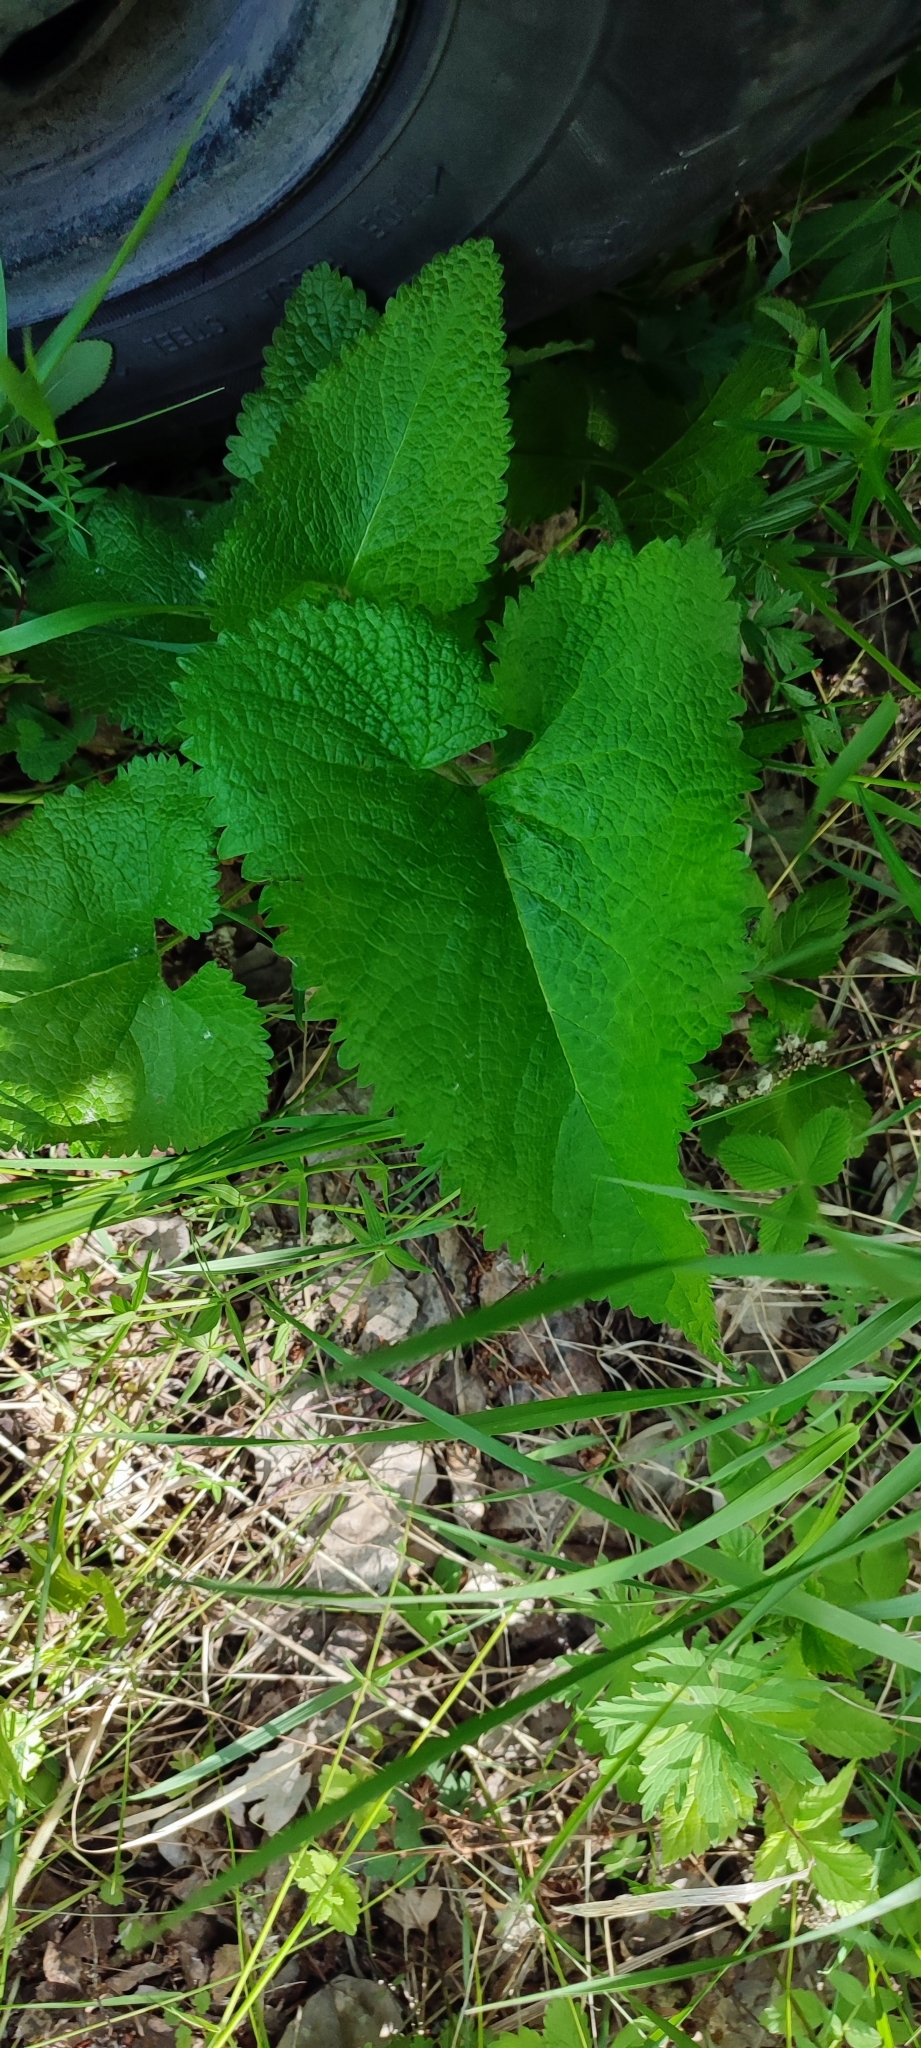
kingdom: Plantae
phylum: Tracheophyta
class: Magnoliopsida
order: Lamiales
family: Lamiaceae
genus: Phlomoides
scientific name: Phlomoides tuberosa
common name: Tuberous jerusalem sage
